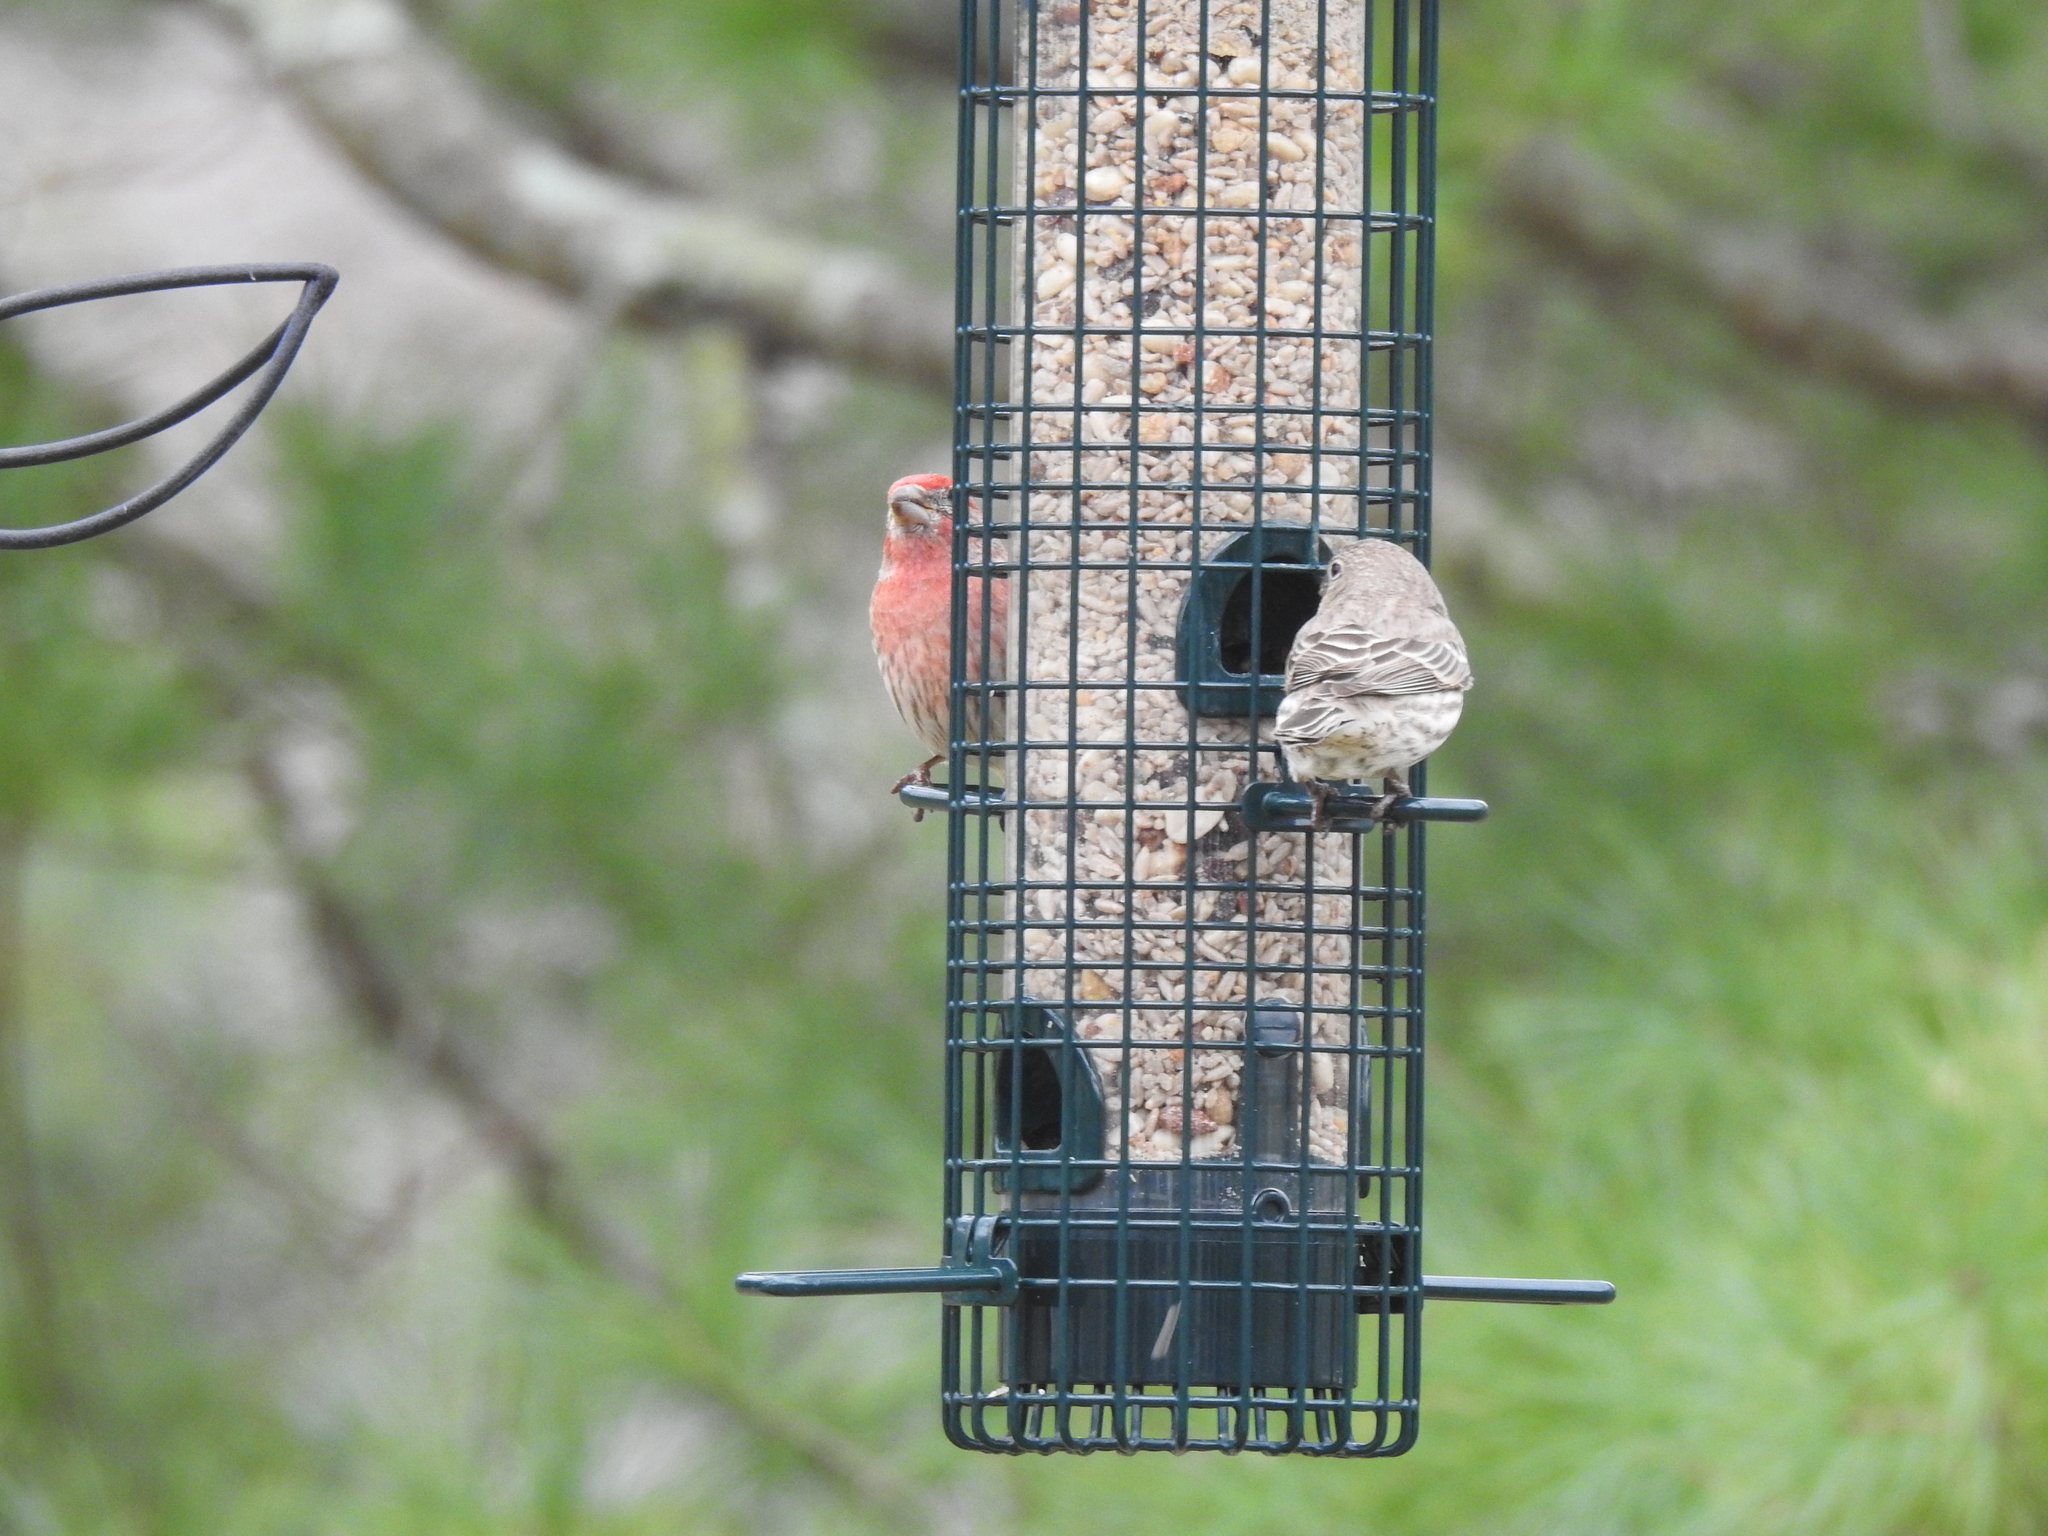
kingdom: Animalia
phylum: Chordata
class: Aves
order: Passeriformes
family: Fringillidae
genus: Haemorhous
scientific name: Haemorhous mexicanus
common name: House finch
